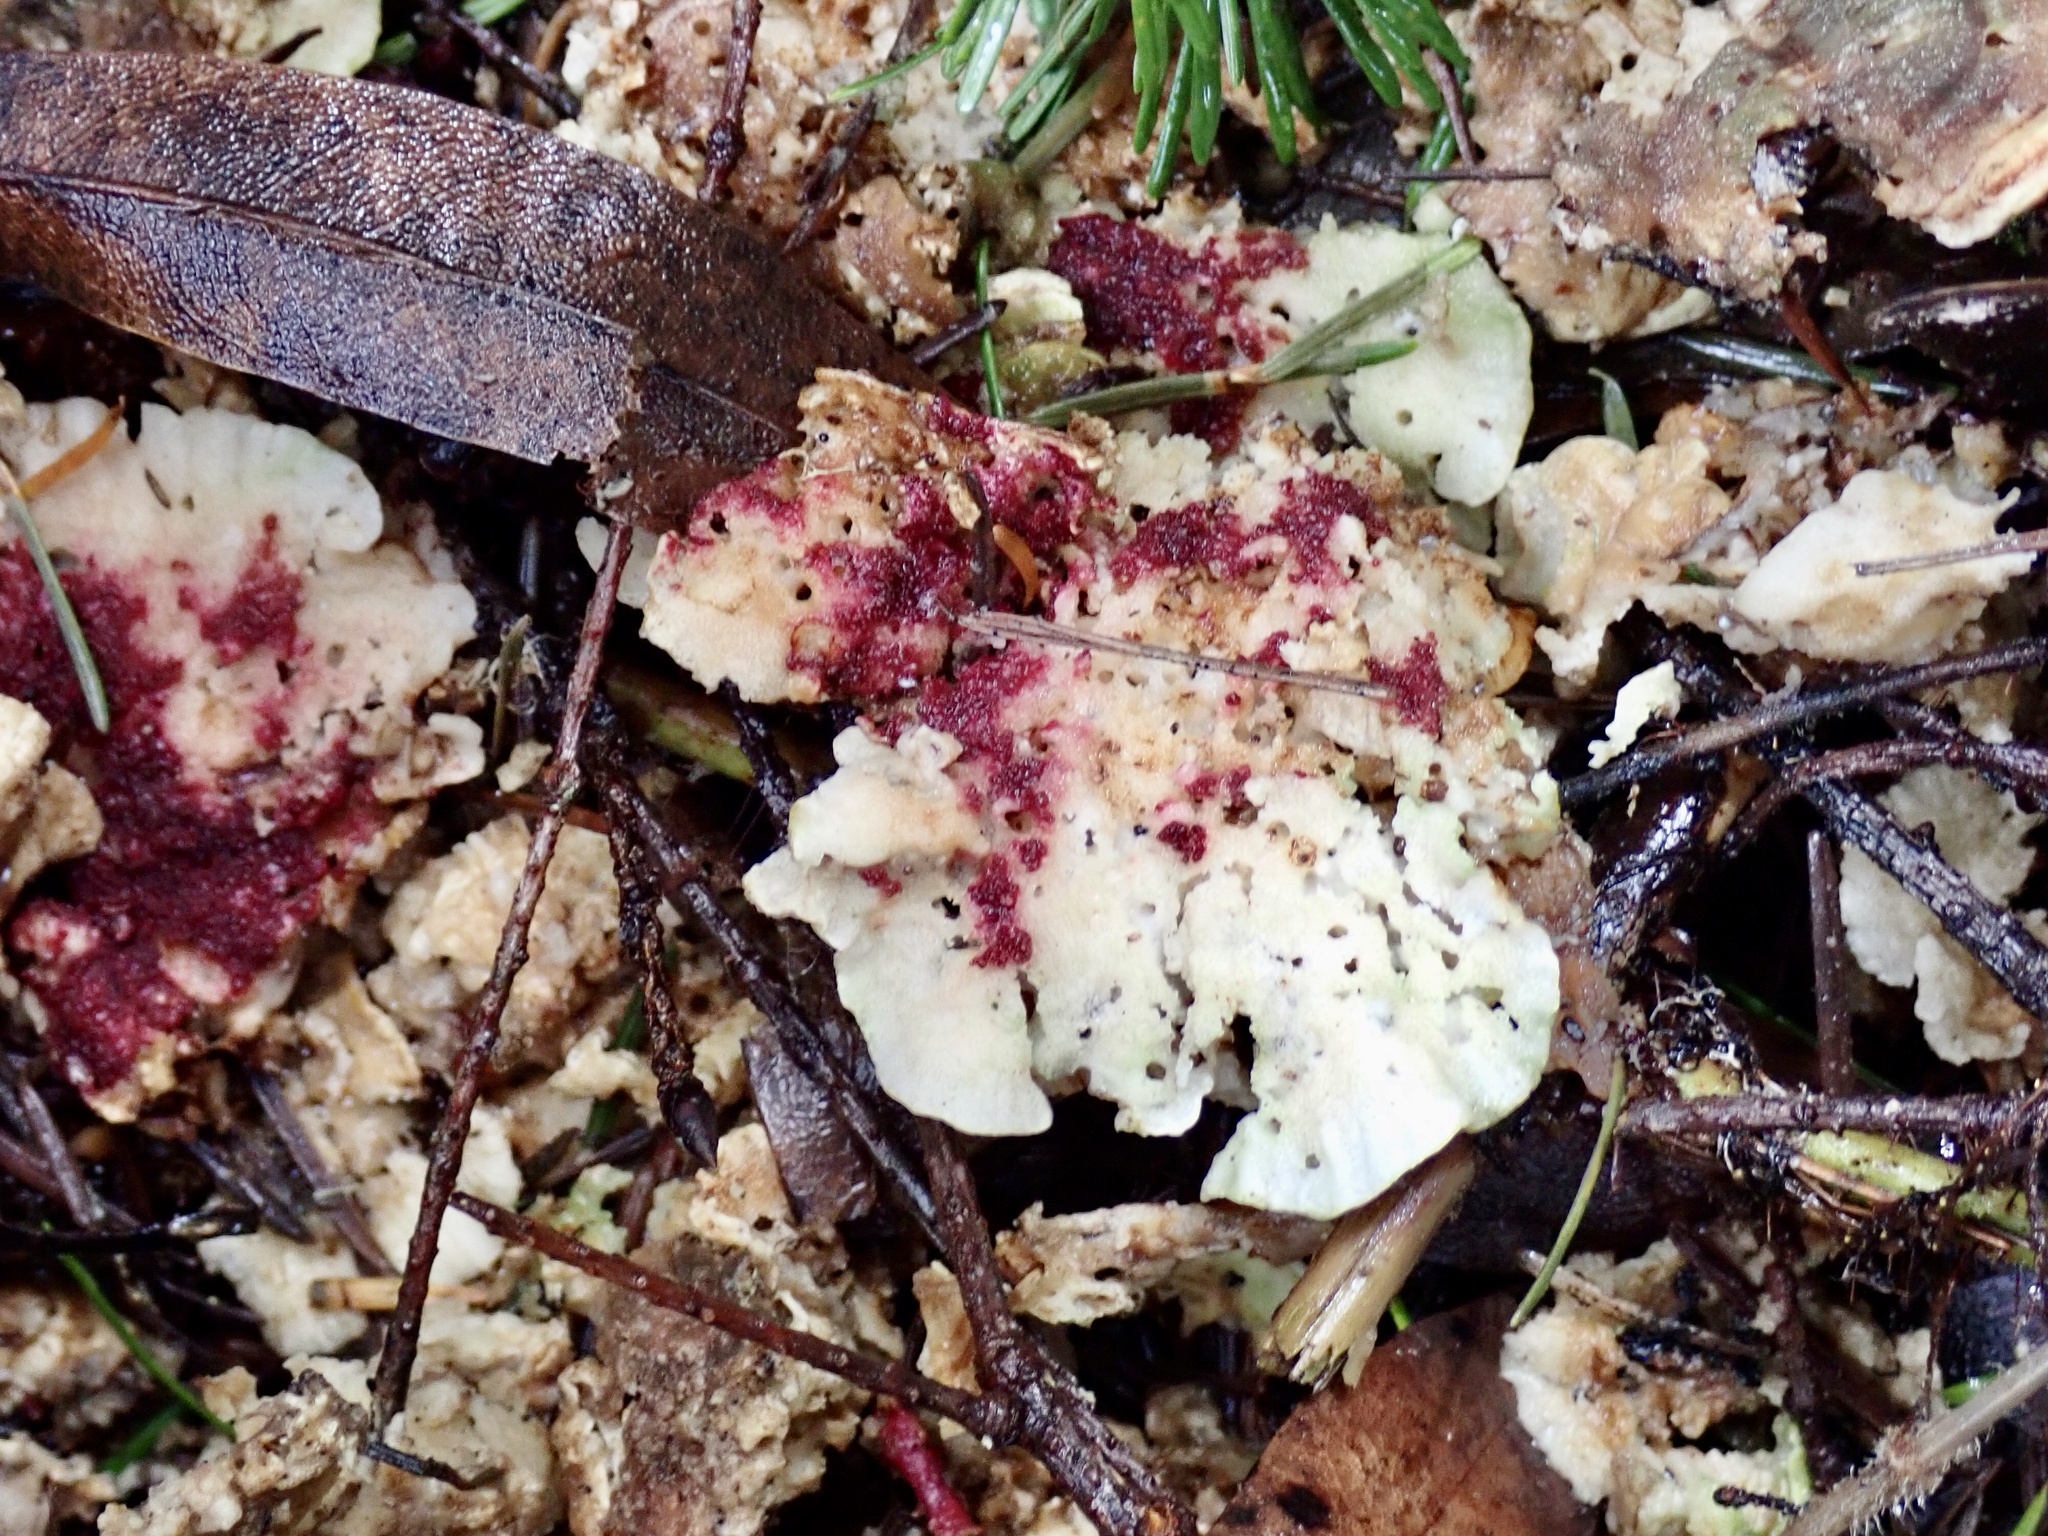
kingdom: Fungi
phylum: Ascomycota
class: Sordariomycetes
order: Hypocreales
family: Hypocreaceae
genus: Hypomyces
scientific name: Hypomyces rosellus
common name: Pink polypore mould
